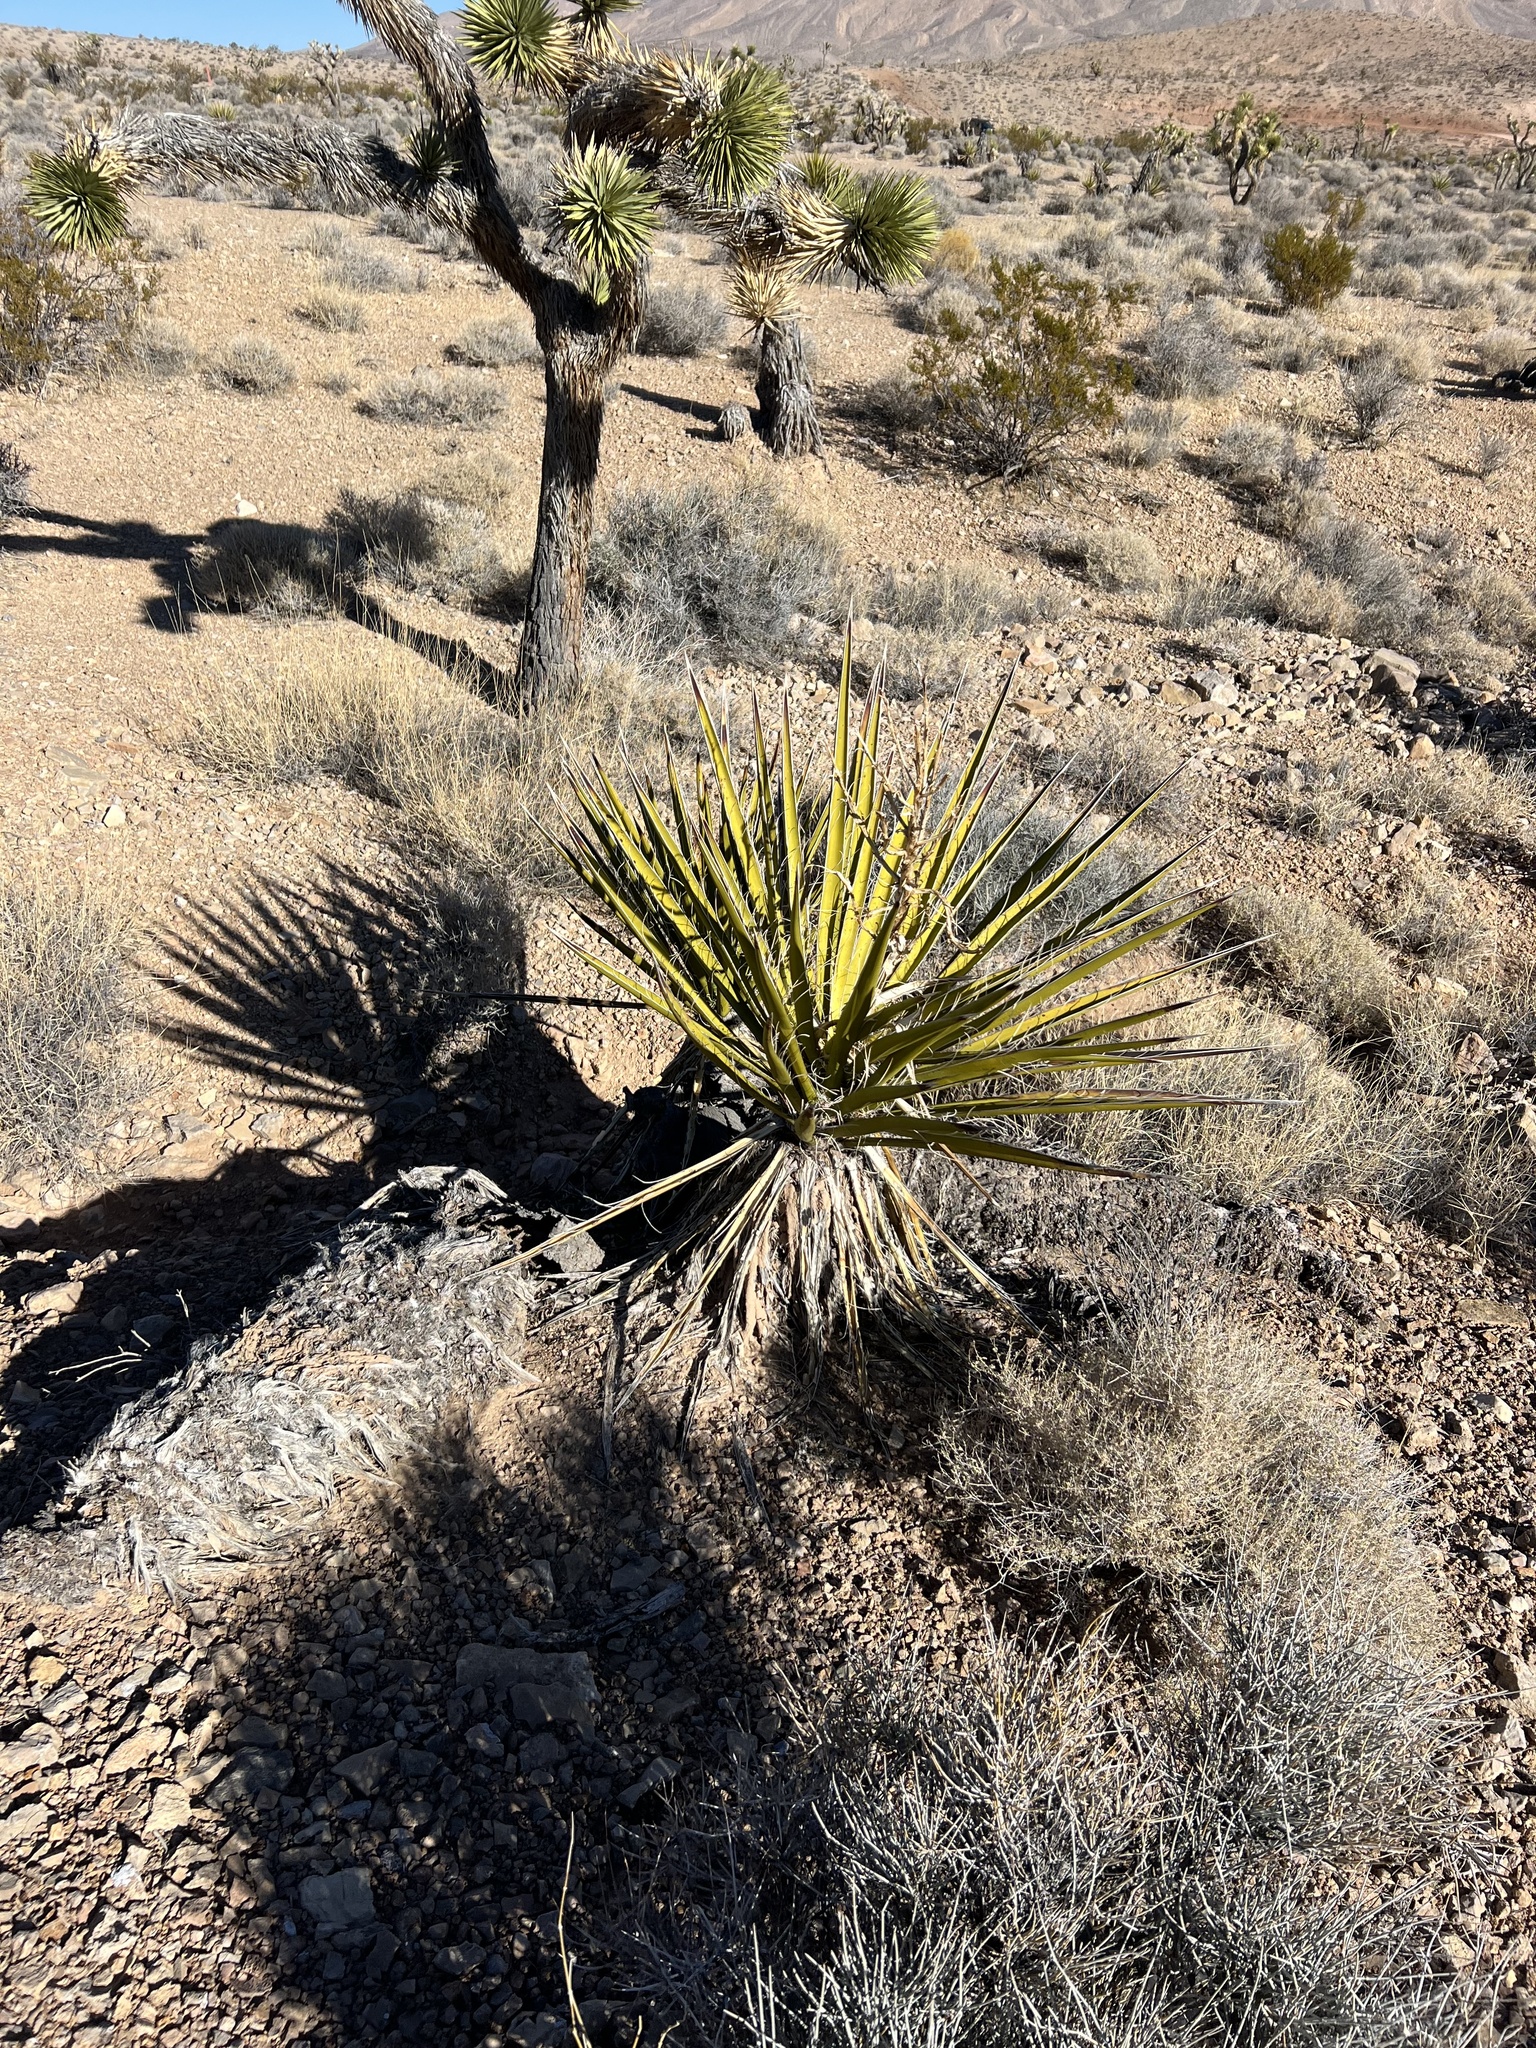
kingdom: Plantae
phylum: Tracheophyta
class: Liliopsida
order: Asparagales
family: Asparagaceae
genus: Yucca
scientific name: Yucca schidigera
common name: Mojave yucca
